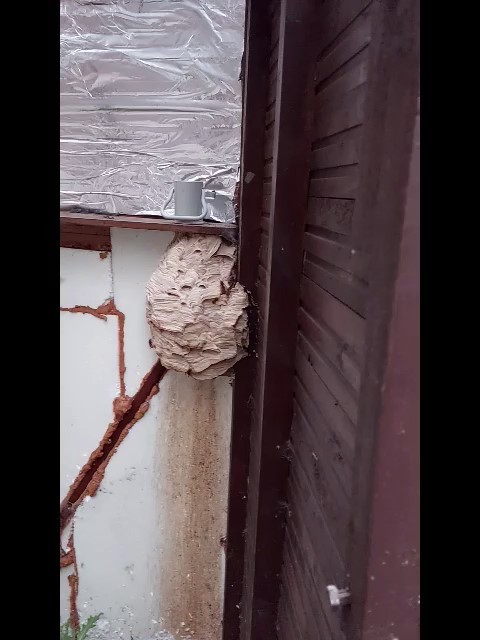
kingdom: Animalia
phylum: Arthropoda
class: Insecta
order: Hymenoptera
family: Vespidae
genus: Vespa
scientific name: Vespa velutina
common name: Asian hornet
